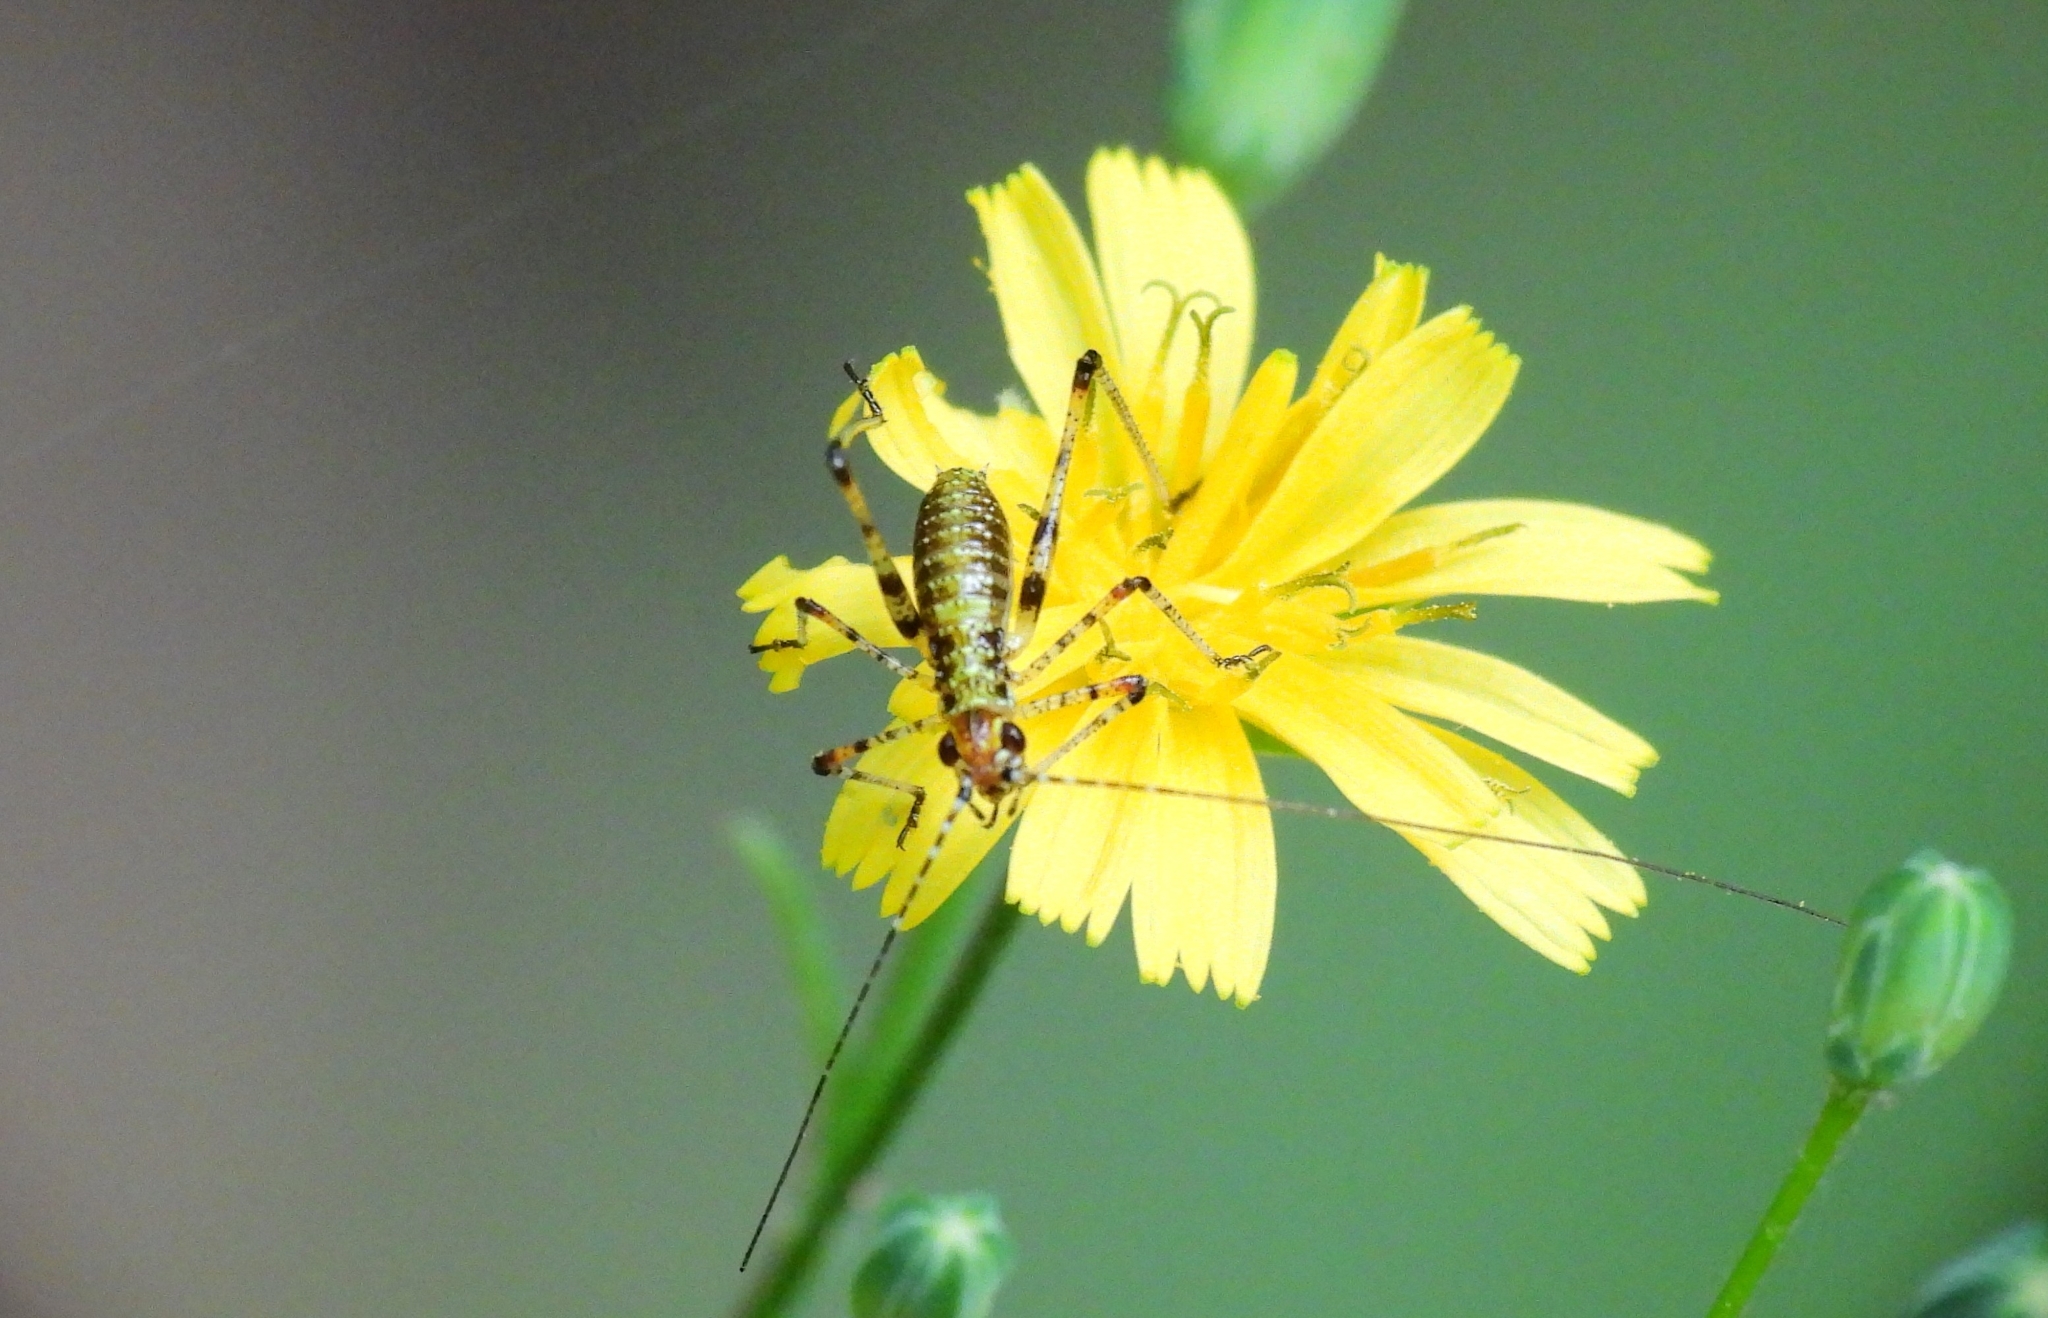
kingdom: Animalia
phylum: Arthropoda
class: Insecta
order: Orthoptera
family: Tettigoniidae
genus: Phaneroptera
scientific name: Phaneroptera nana
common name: Southern sickle bush-cricket
